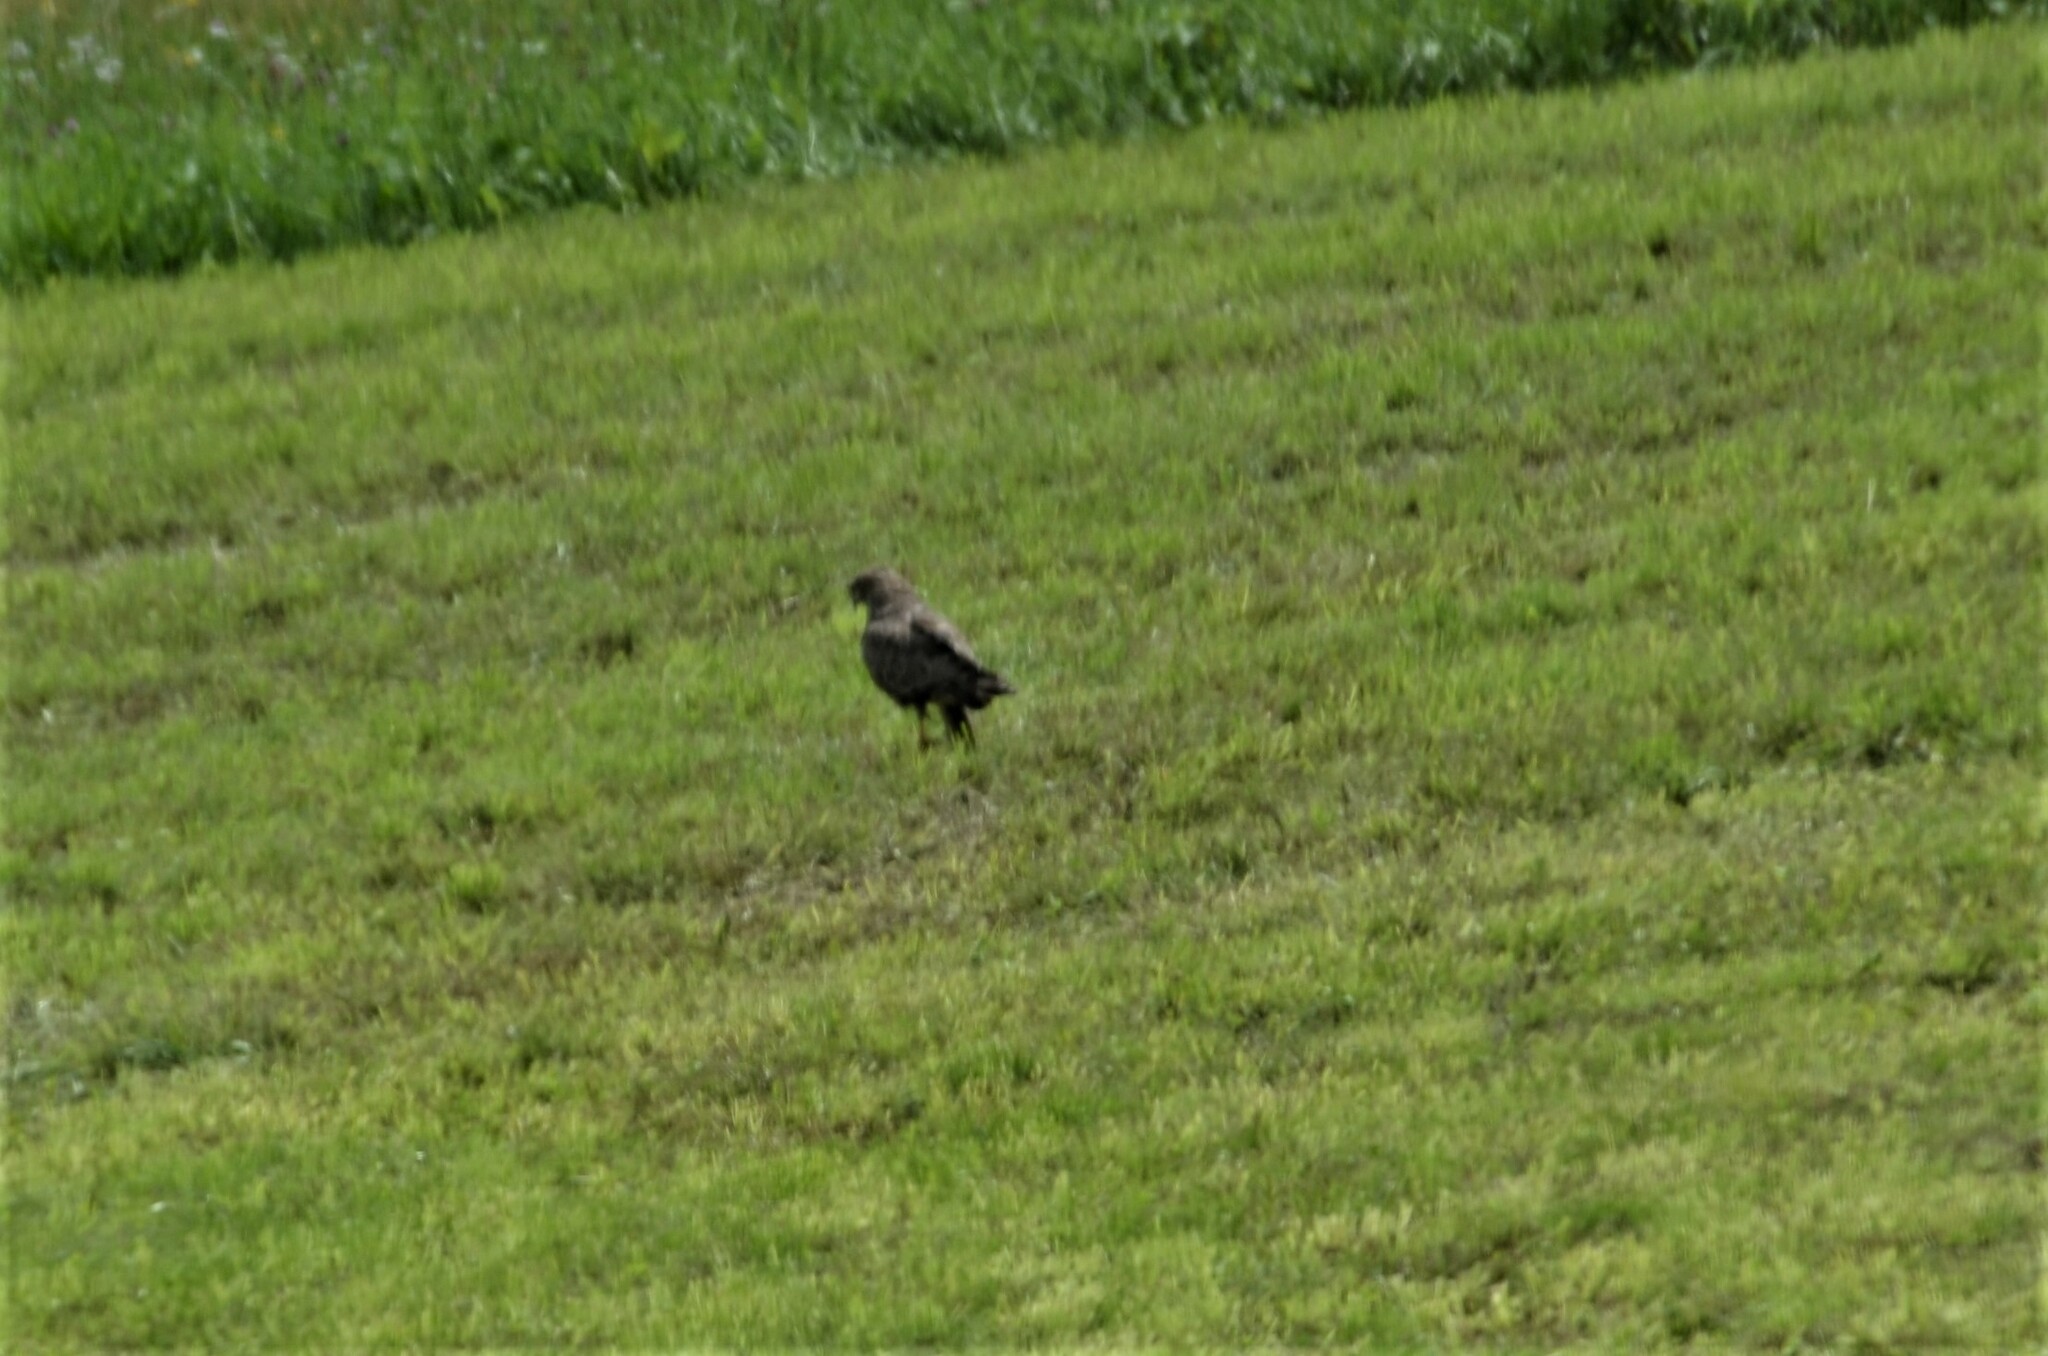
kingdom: Animalia
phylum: Chordata
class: Aves
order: Accipitriformes
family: Accipitridae
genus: Buteo
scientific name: Buteo buteo
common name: Common buzzard
